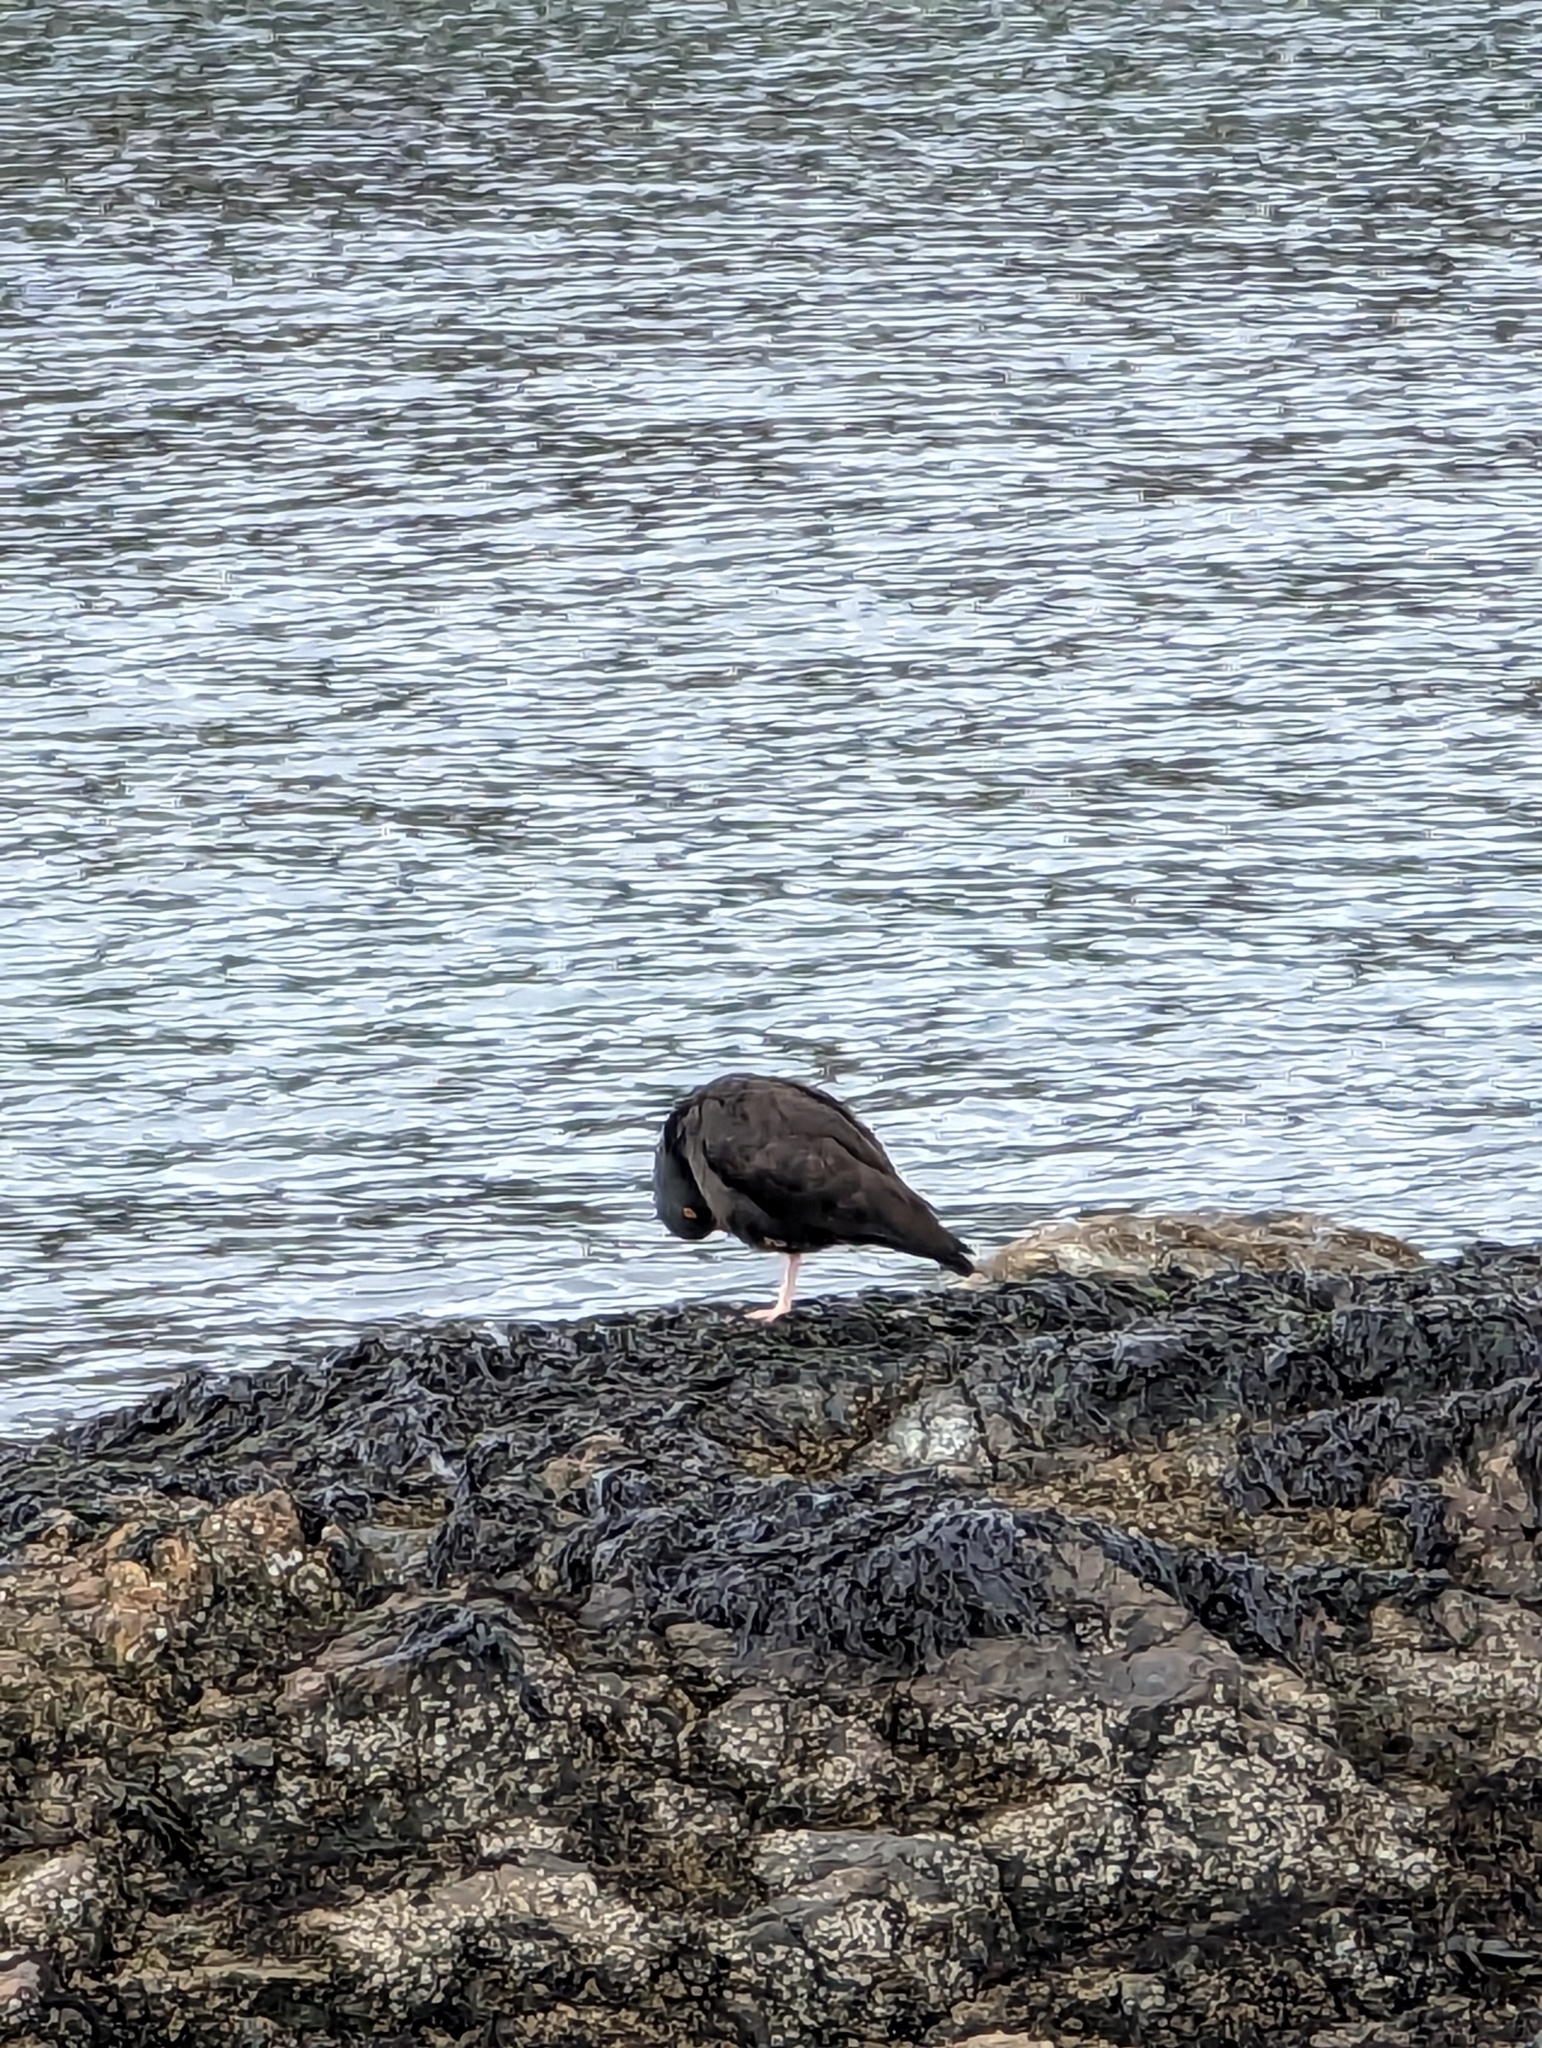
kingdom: Animalia
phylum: Chordata
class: Aves
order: Charadriiformes
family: Haematopodidae
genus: Haematopus
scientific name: Haematopus bachmani
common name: Black oystercatcher
